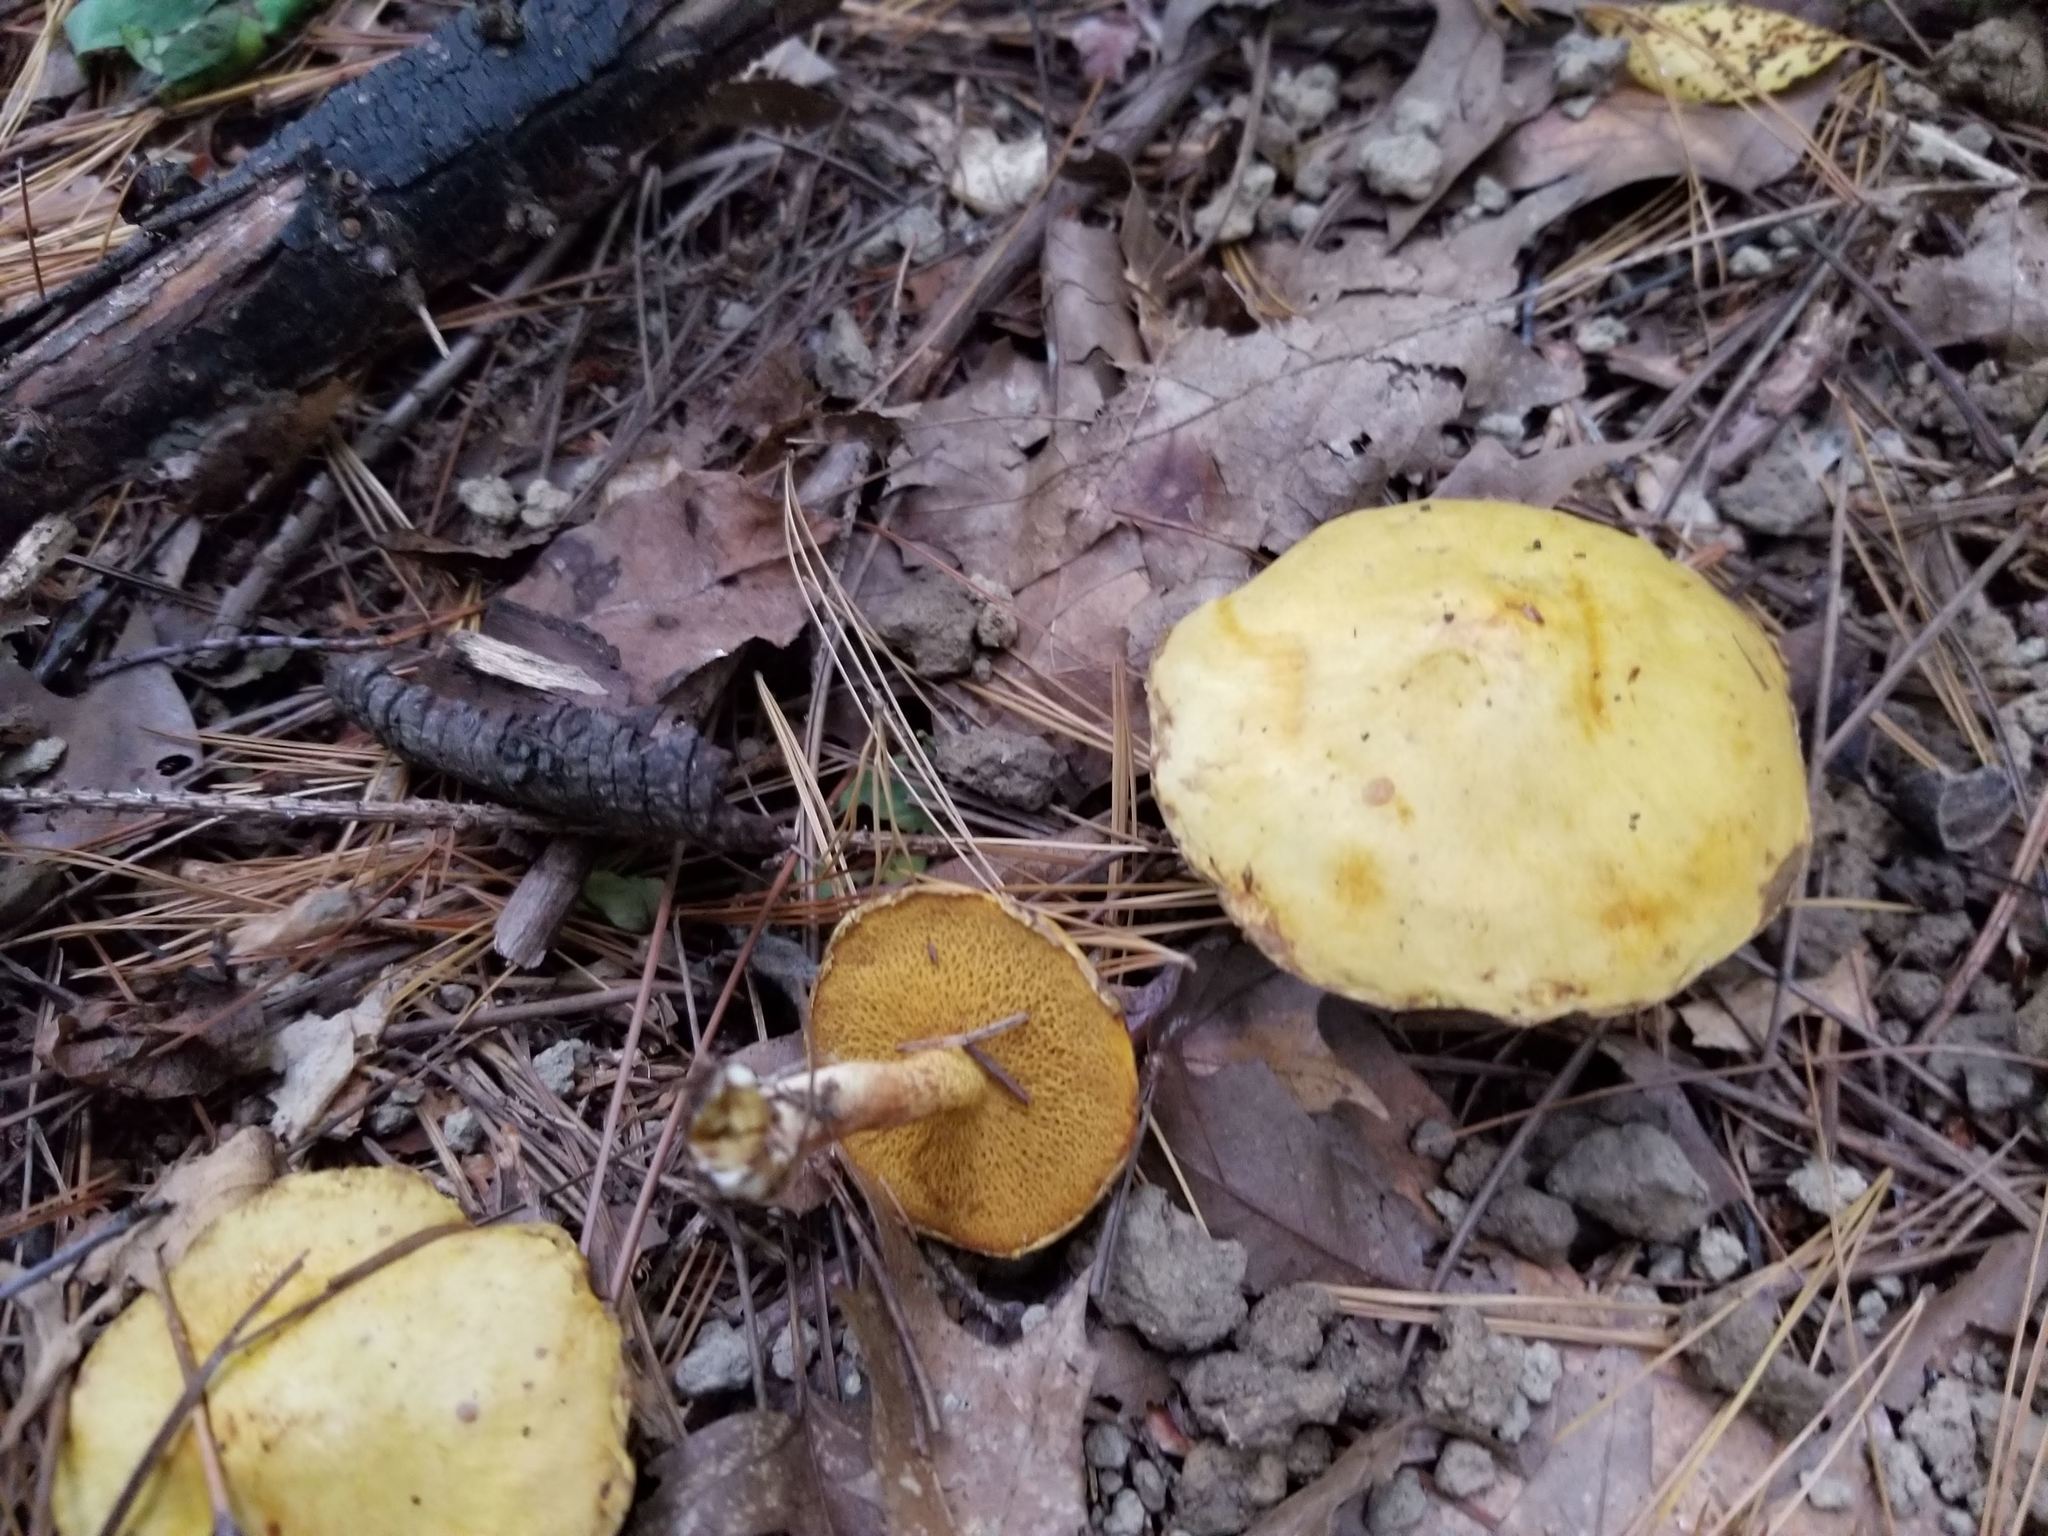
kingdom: Fungi
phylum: Basidiomycota
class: Agaricomycetes
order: Boletales
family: Suillaceae
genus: Suillus
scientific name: Suillus americanus
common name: Chicken fat mushroom
